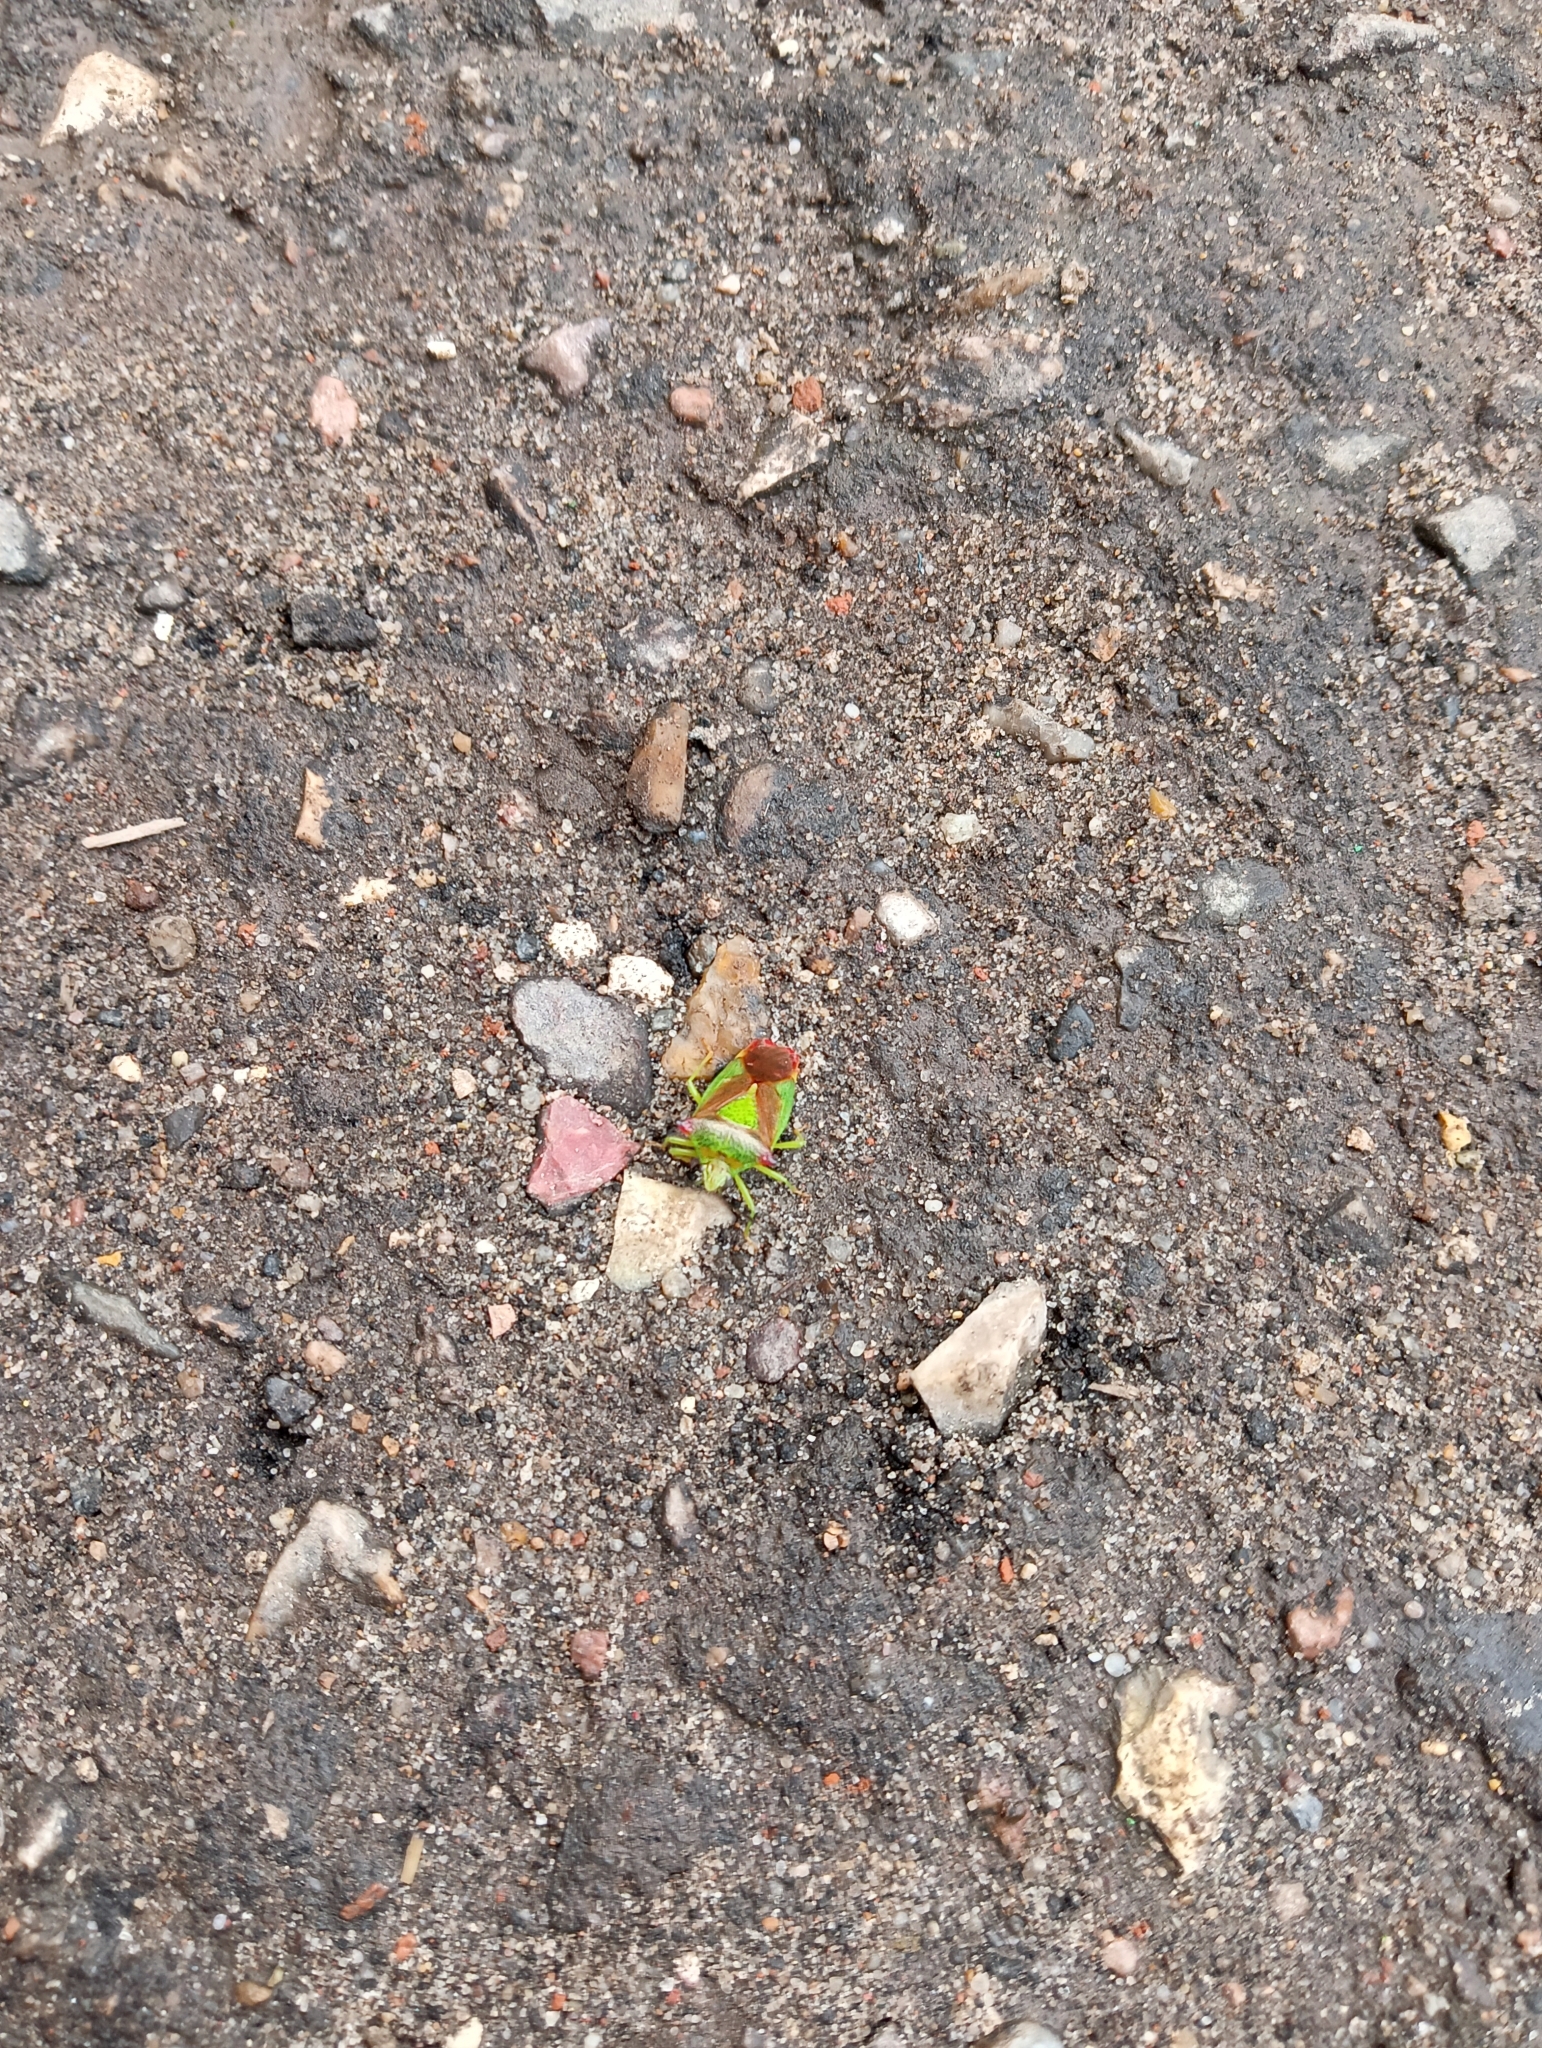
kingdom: Animalia
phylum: Arthropoda
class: Insecta
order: Hemiptera
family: Acanthosomatidae
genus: Acanthosoma
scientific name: Acanthosoma haemorrhoidale
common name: Hawthorn shieldbug
